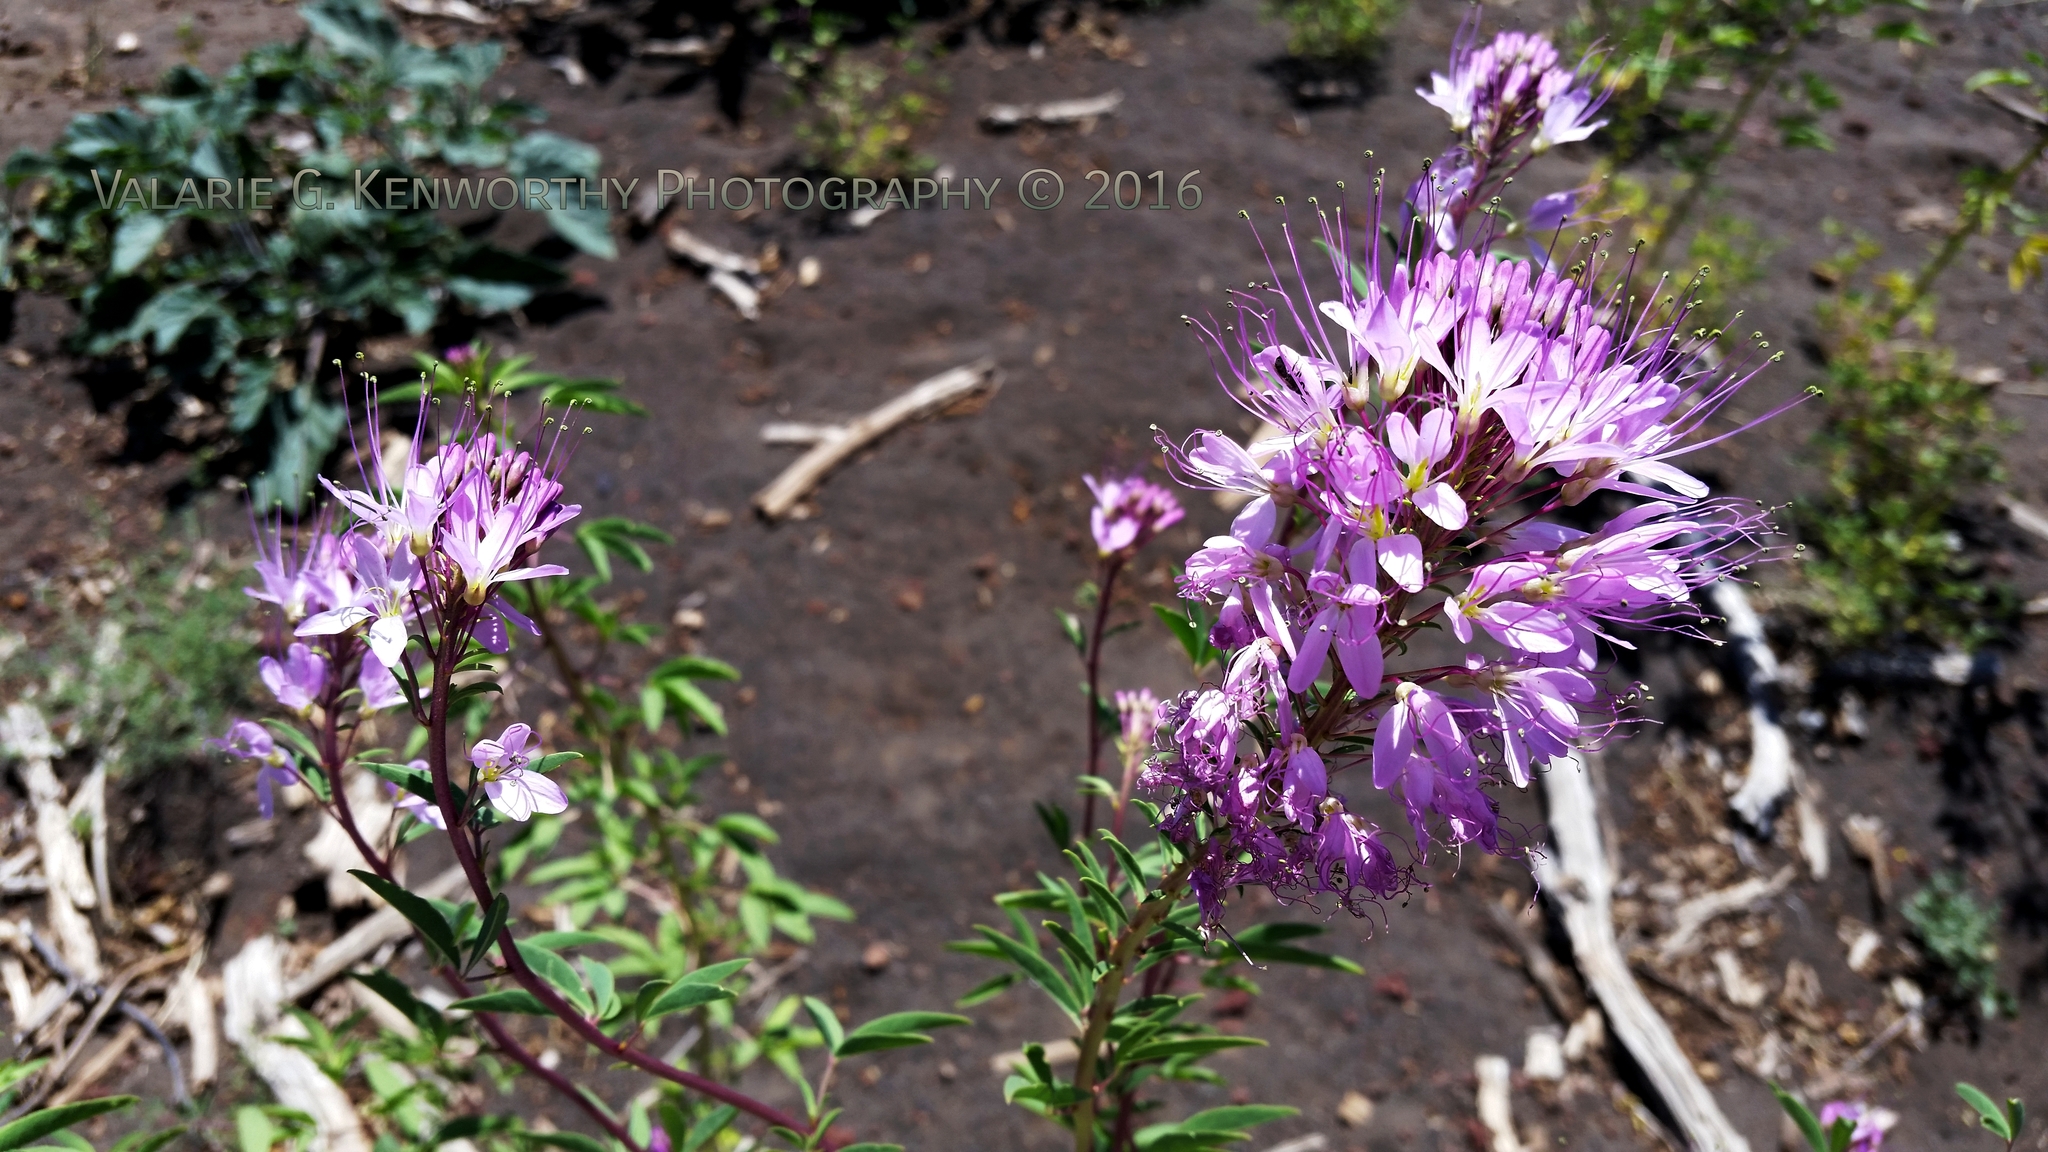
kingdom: Plantae
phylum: Tracheophyta
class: Magnoliopsida
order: Brassicales
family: Cleomaceae
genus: Cleomella
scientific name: Cleomella serrulata
